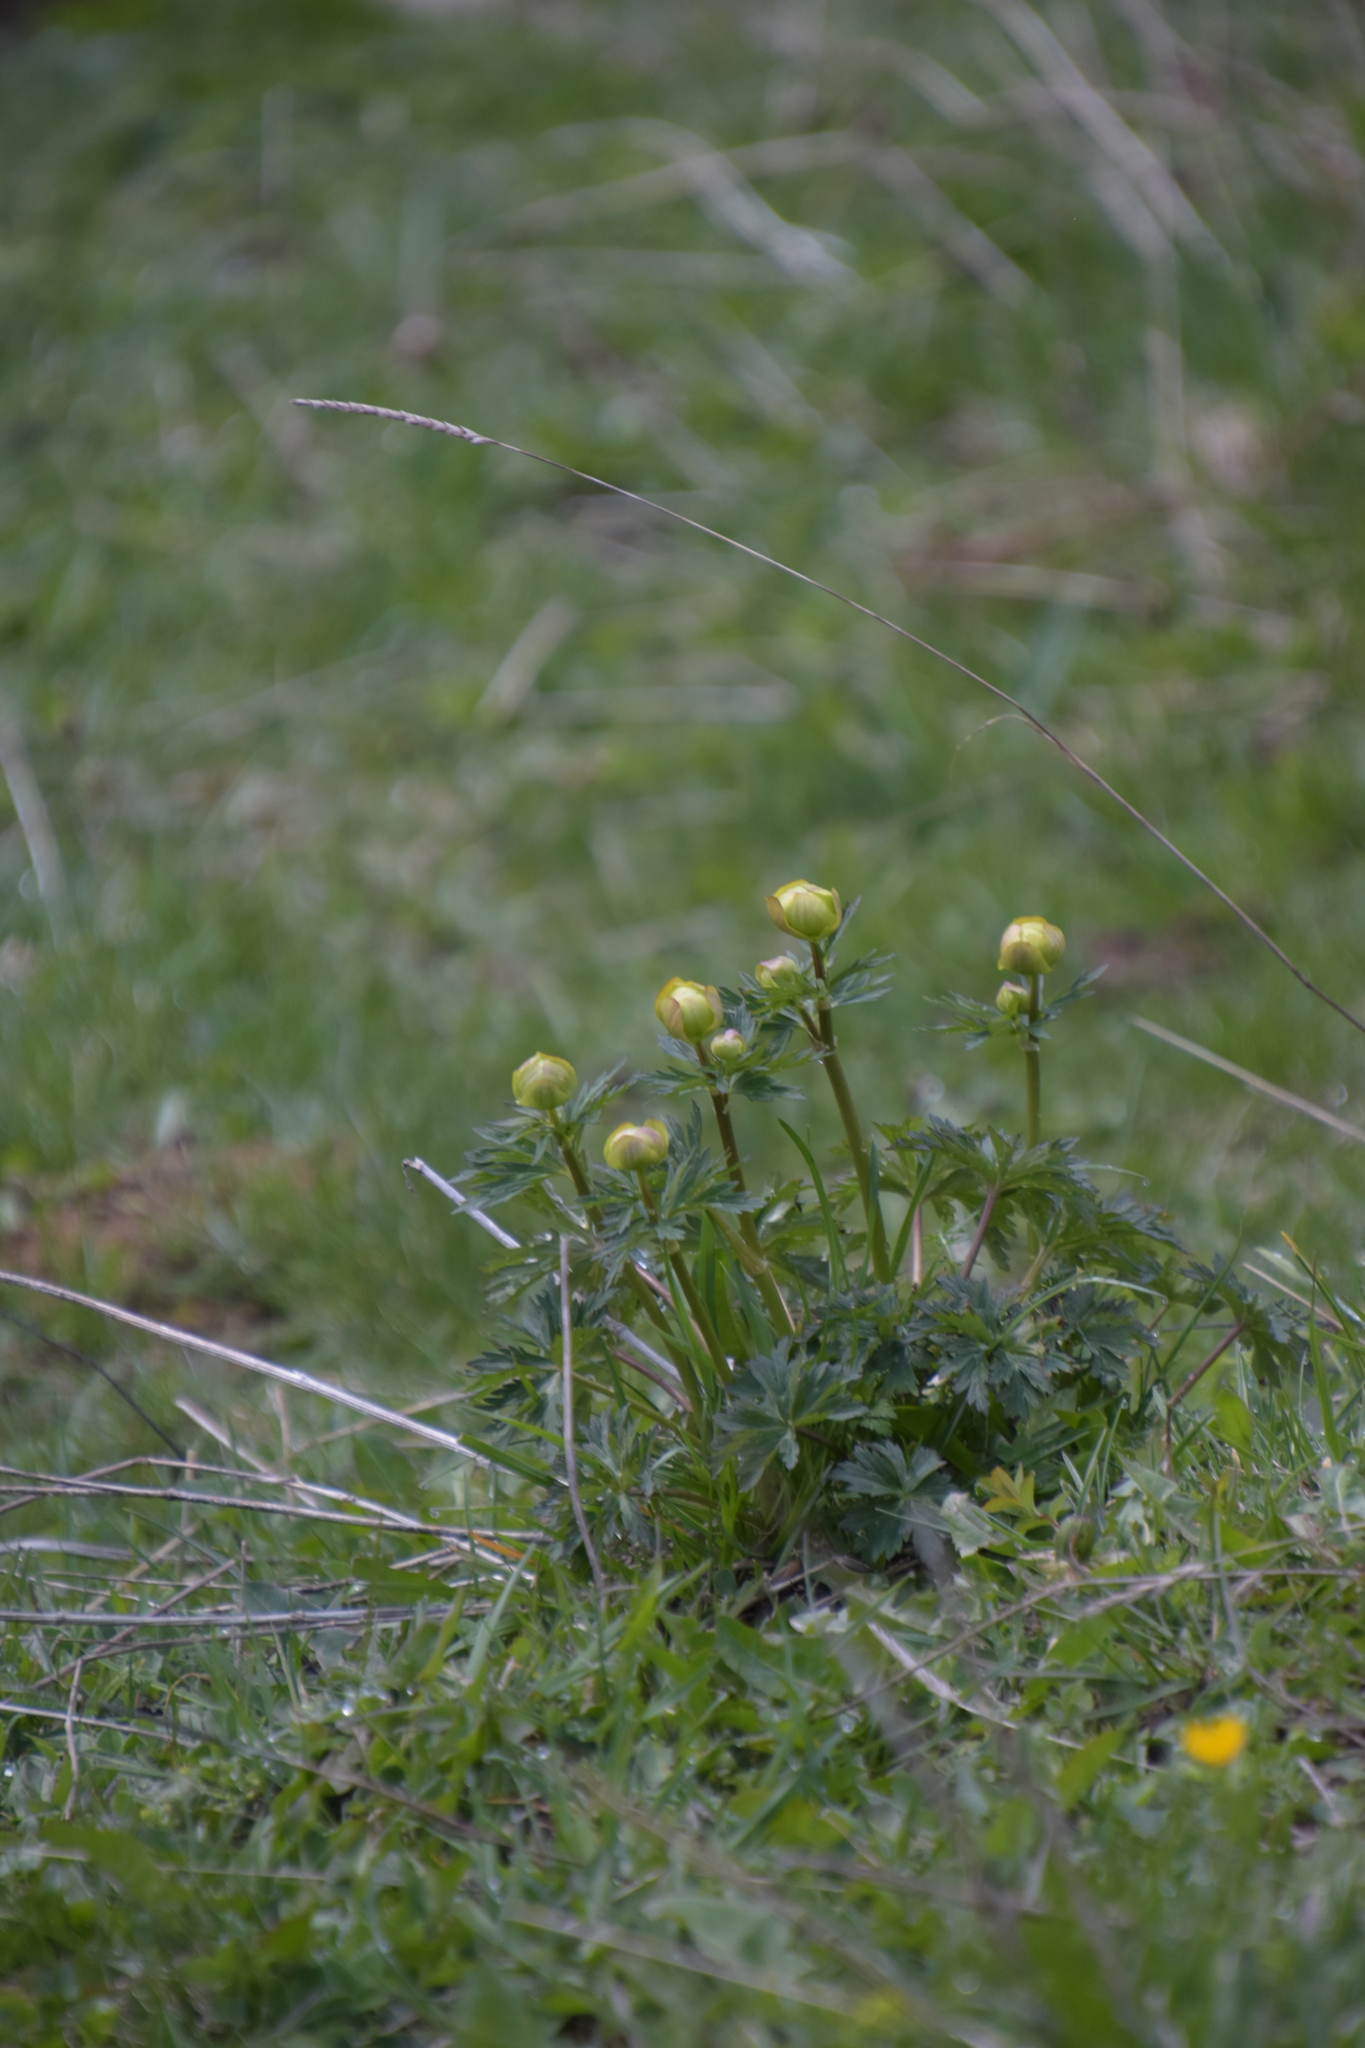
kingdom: Plantae
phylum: Tracheophyta
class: Magnoliopsida
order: Ranunculales
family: Ranunculaceae
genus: Trollius
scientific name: Trollius europaeus
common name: European globeflower
